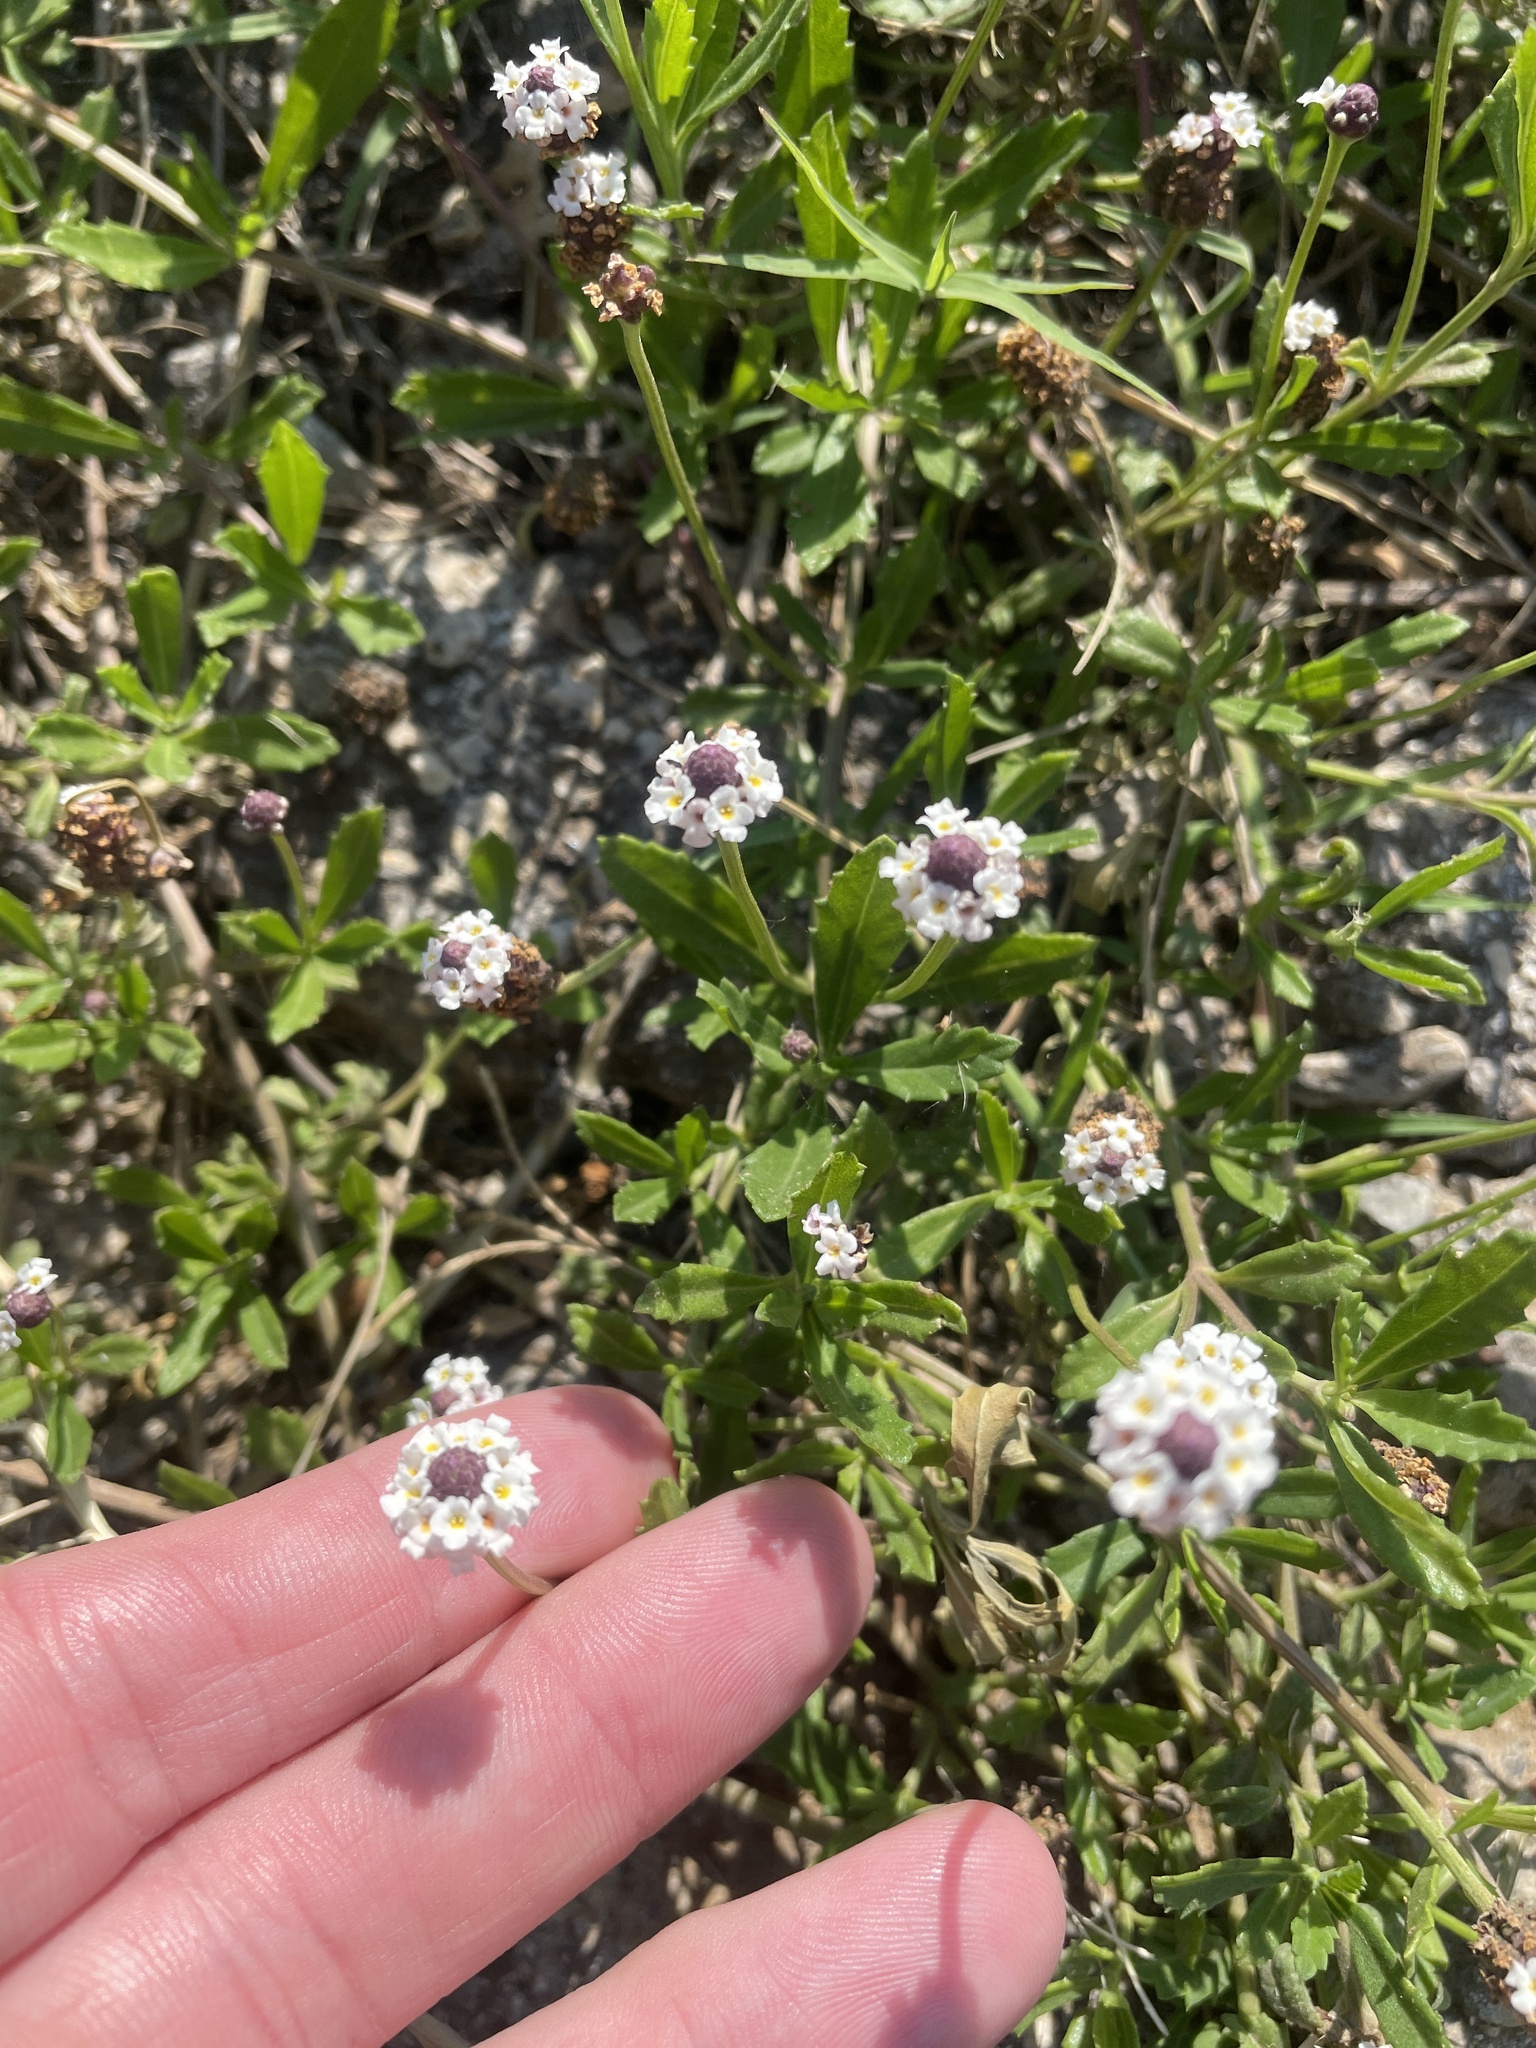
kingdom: Plantae
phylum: Tracheophyta
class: Magnoliopsida
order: Lamiales
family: Verbenaceae
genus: Phyla
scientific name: Phyla nodiflora
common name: Frogfruit
